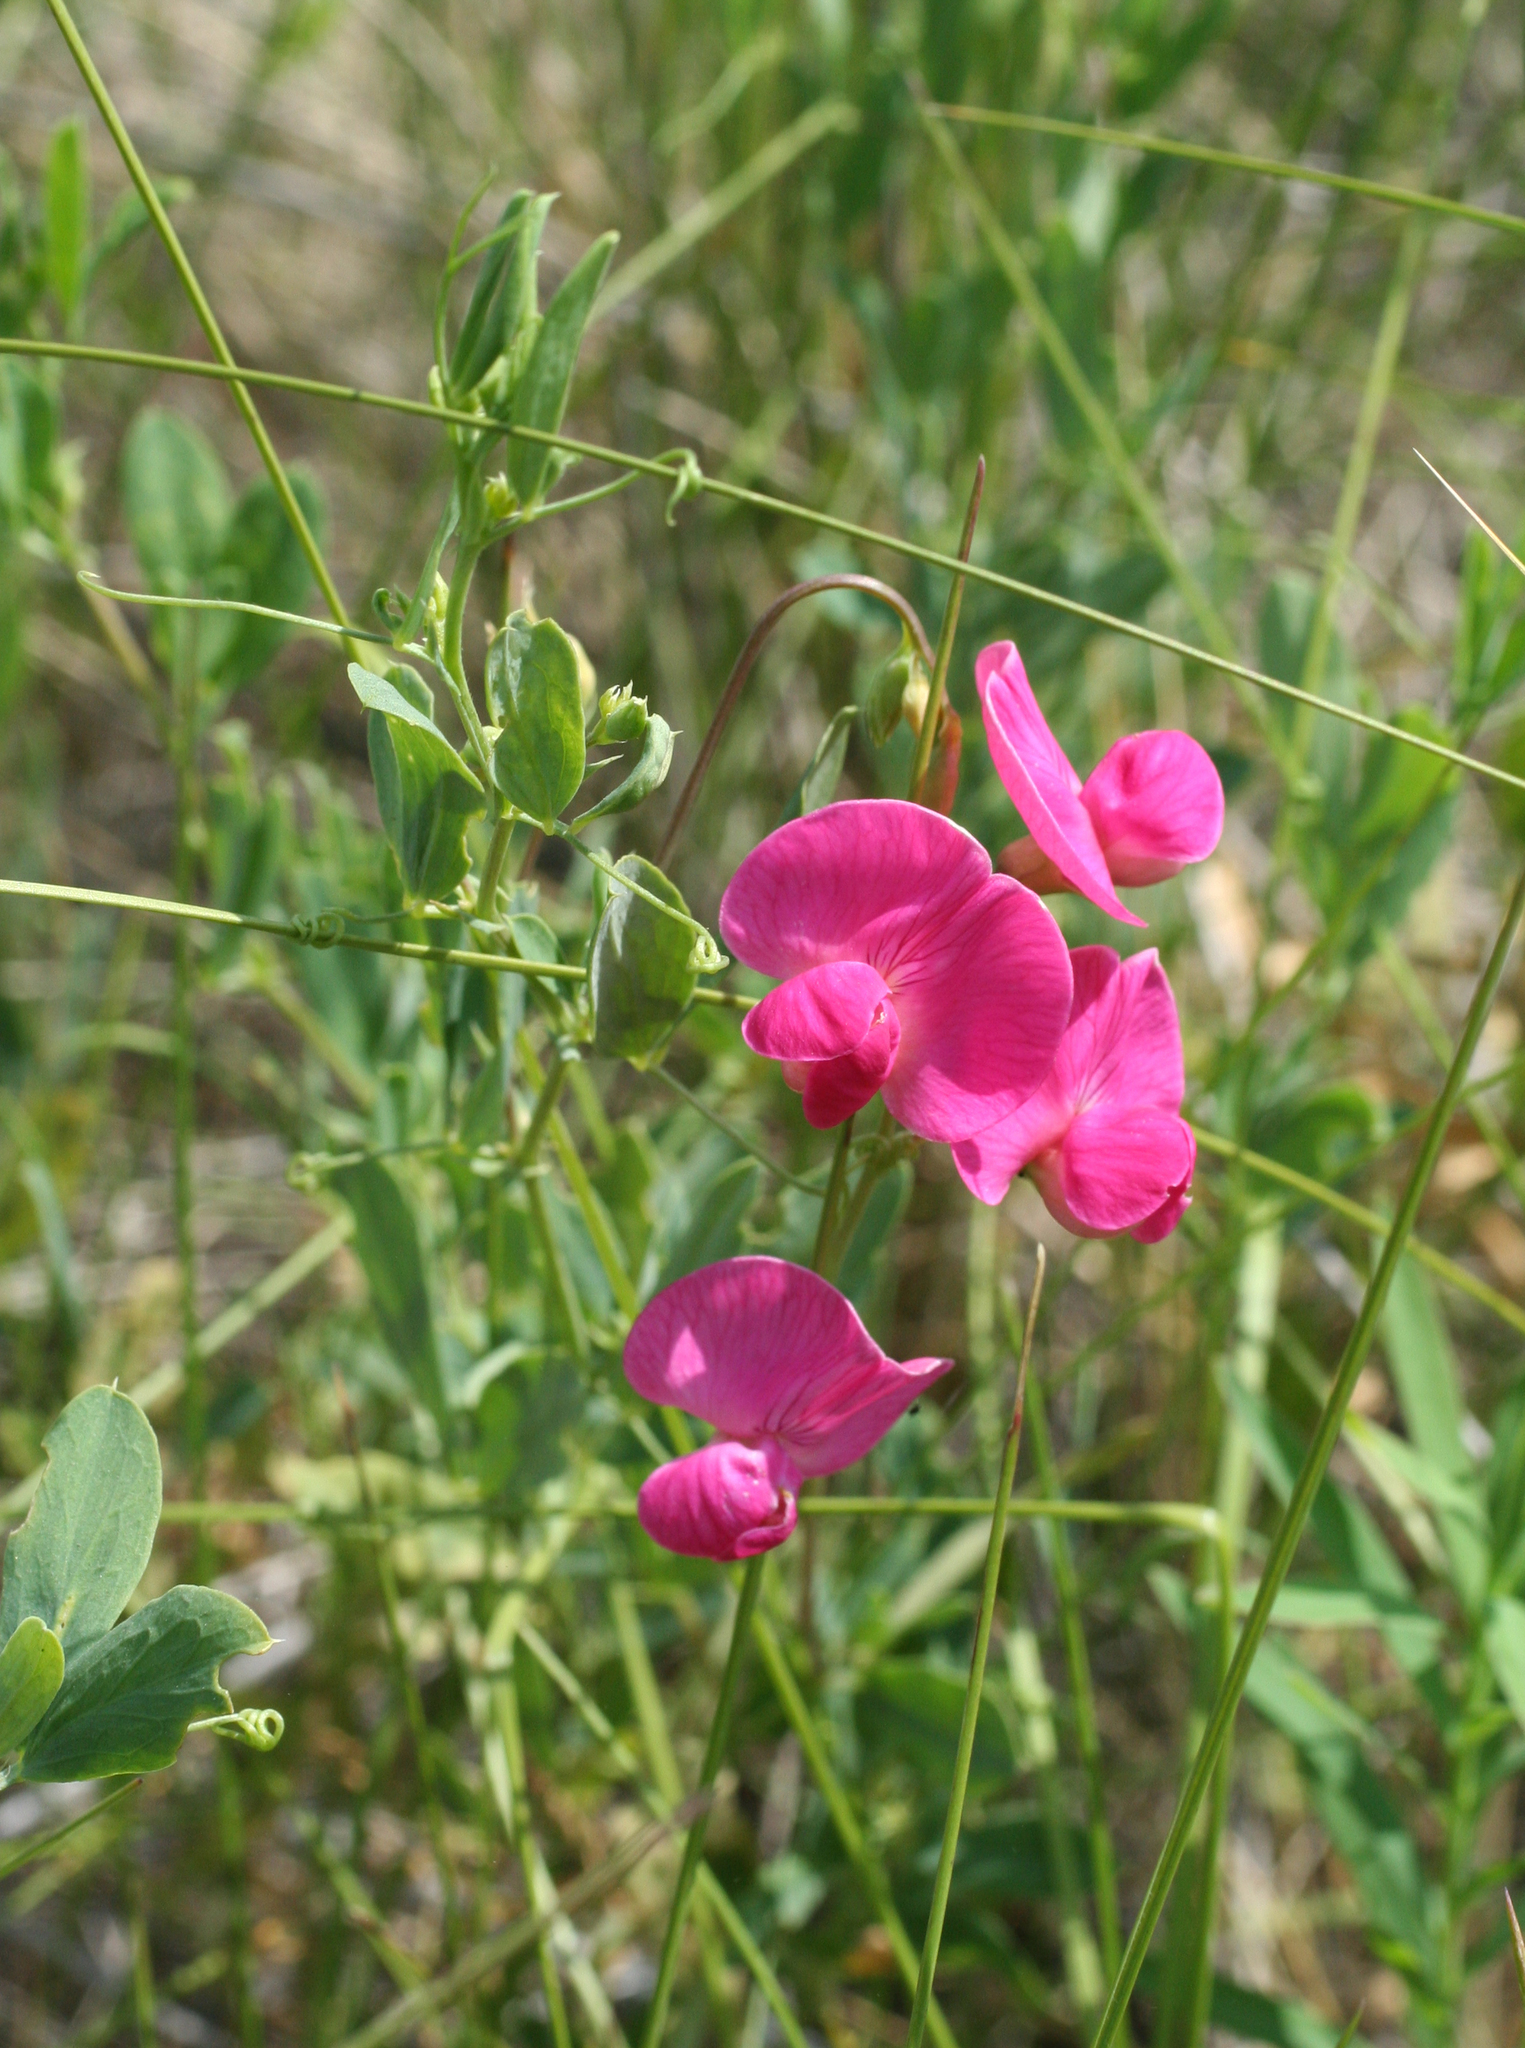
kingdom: Plantae
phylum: Tracheophyta
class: Magnoliopsida
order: Fabales
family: Fabaceae
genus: Lathyrus
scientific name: Lathyrus tuberosus
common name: Tuberous pea
